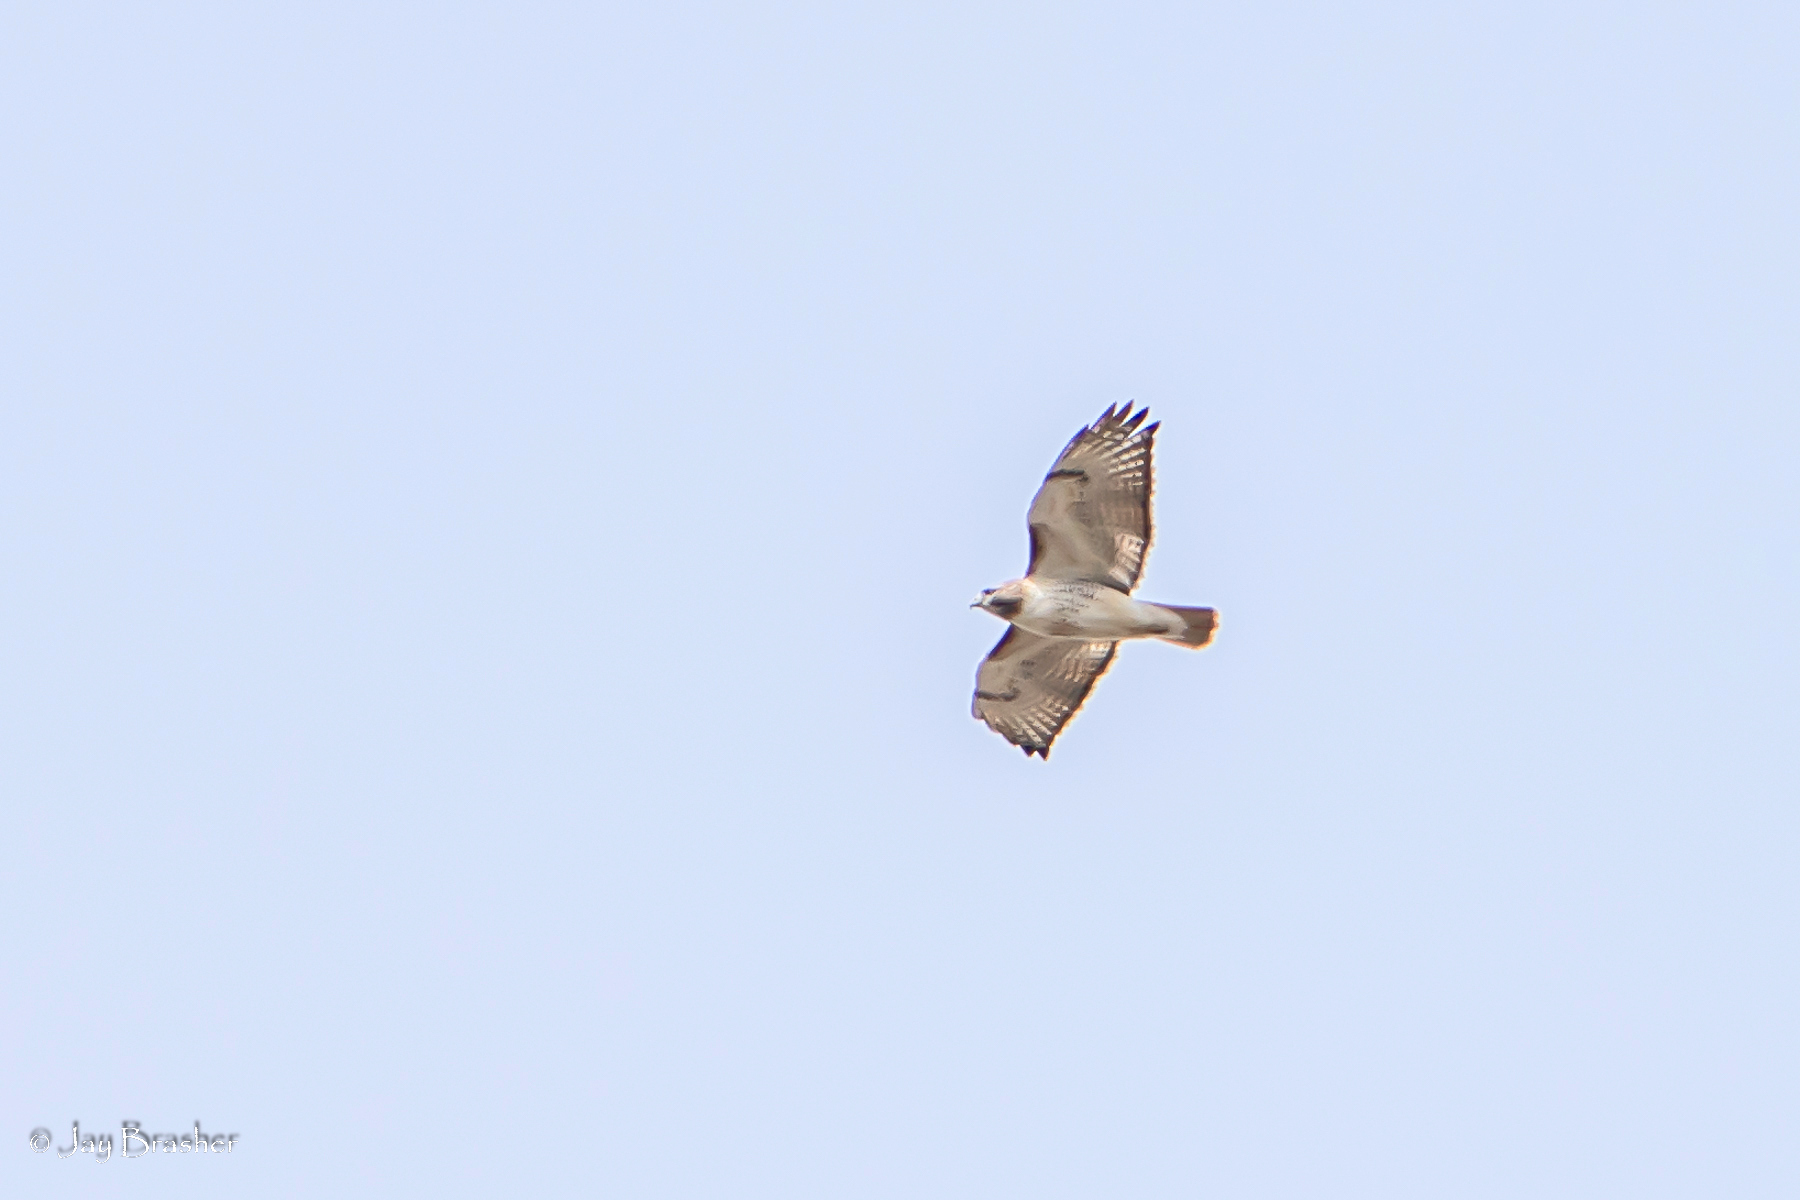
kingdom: Animalia
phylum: Chordata
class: Aves
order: Accipitriformes
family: Accipitridae
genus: Buteo
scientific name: Buteo jamaicensis
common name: Red-tailed hawk
